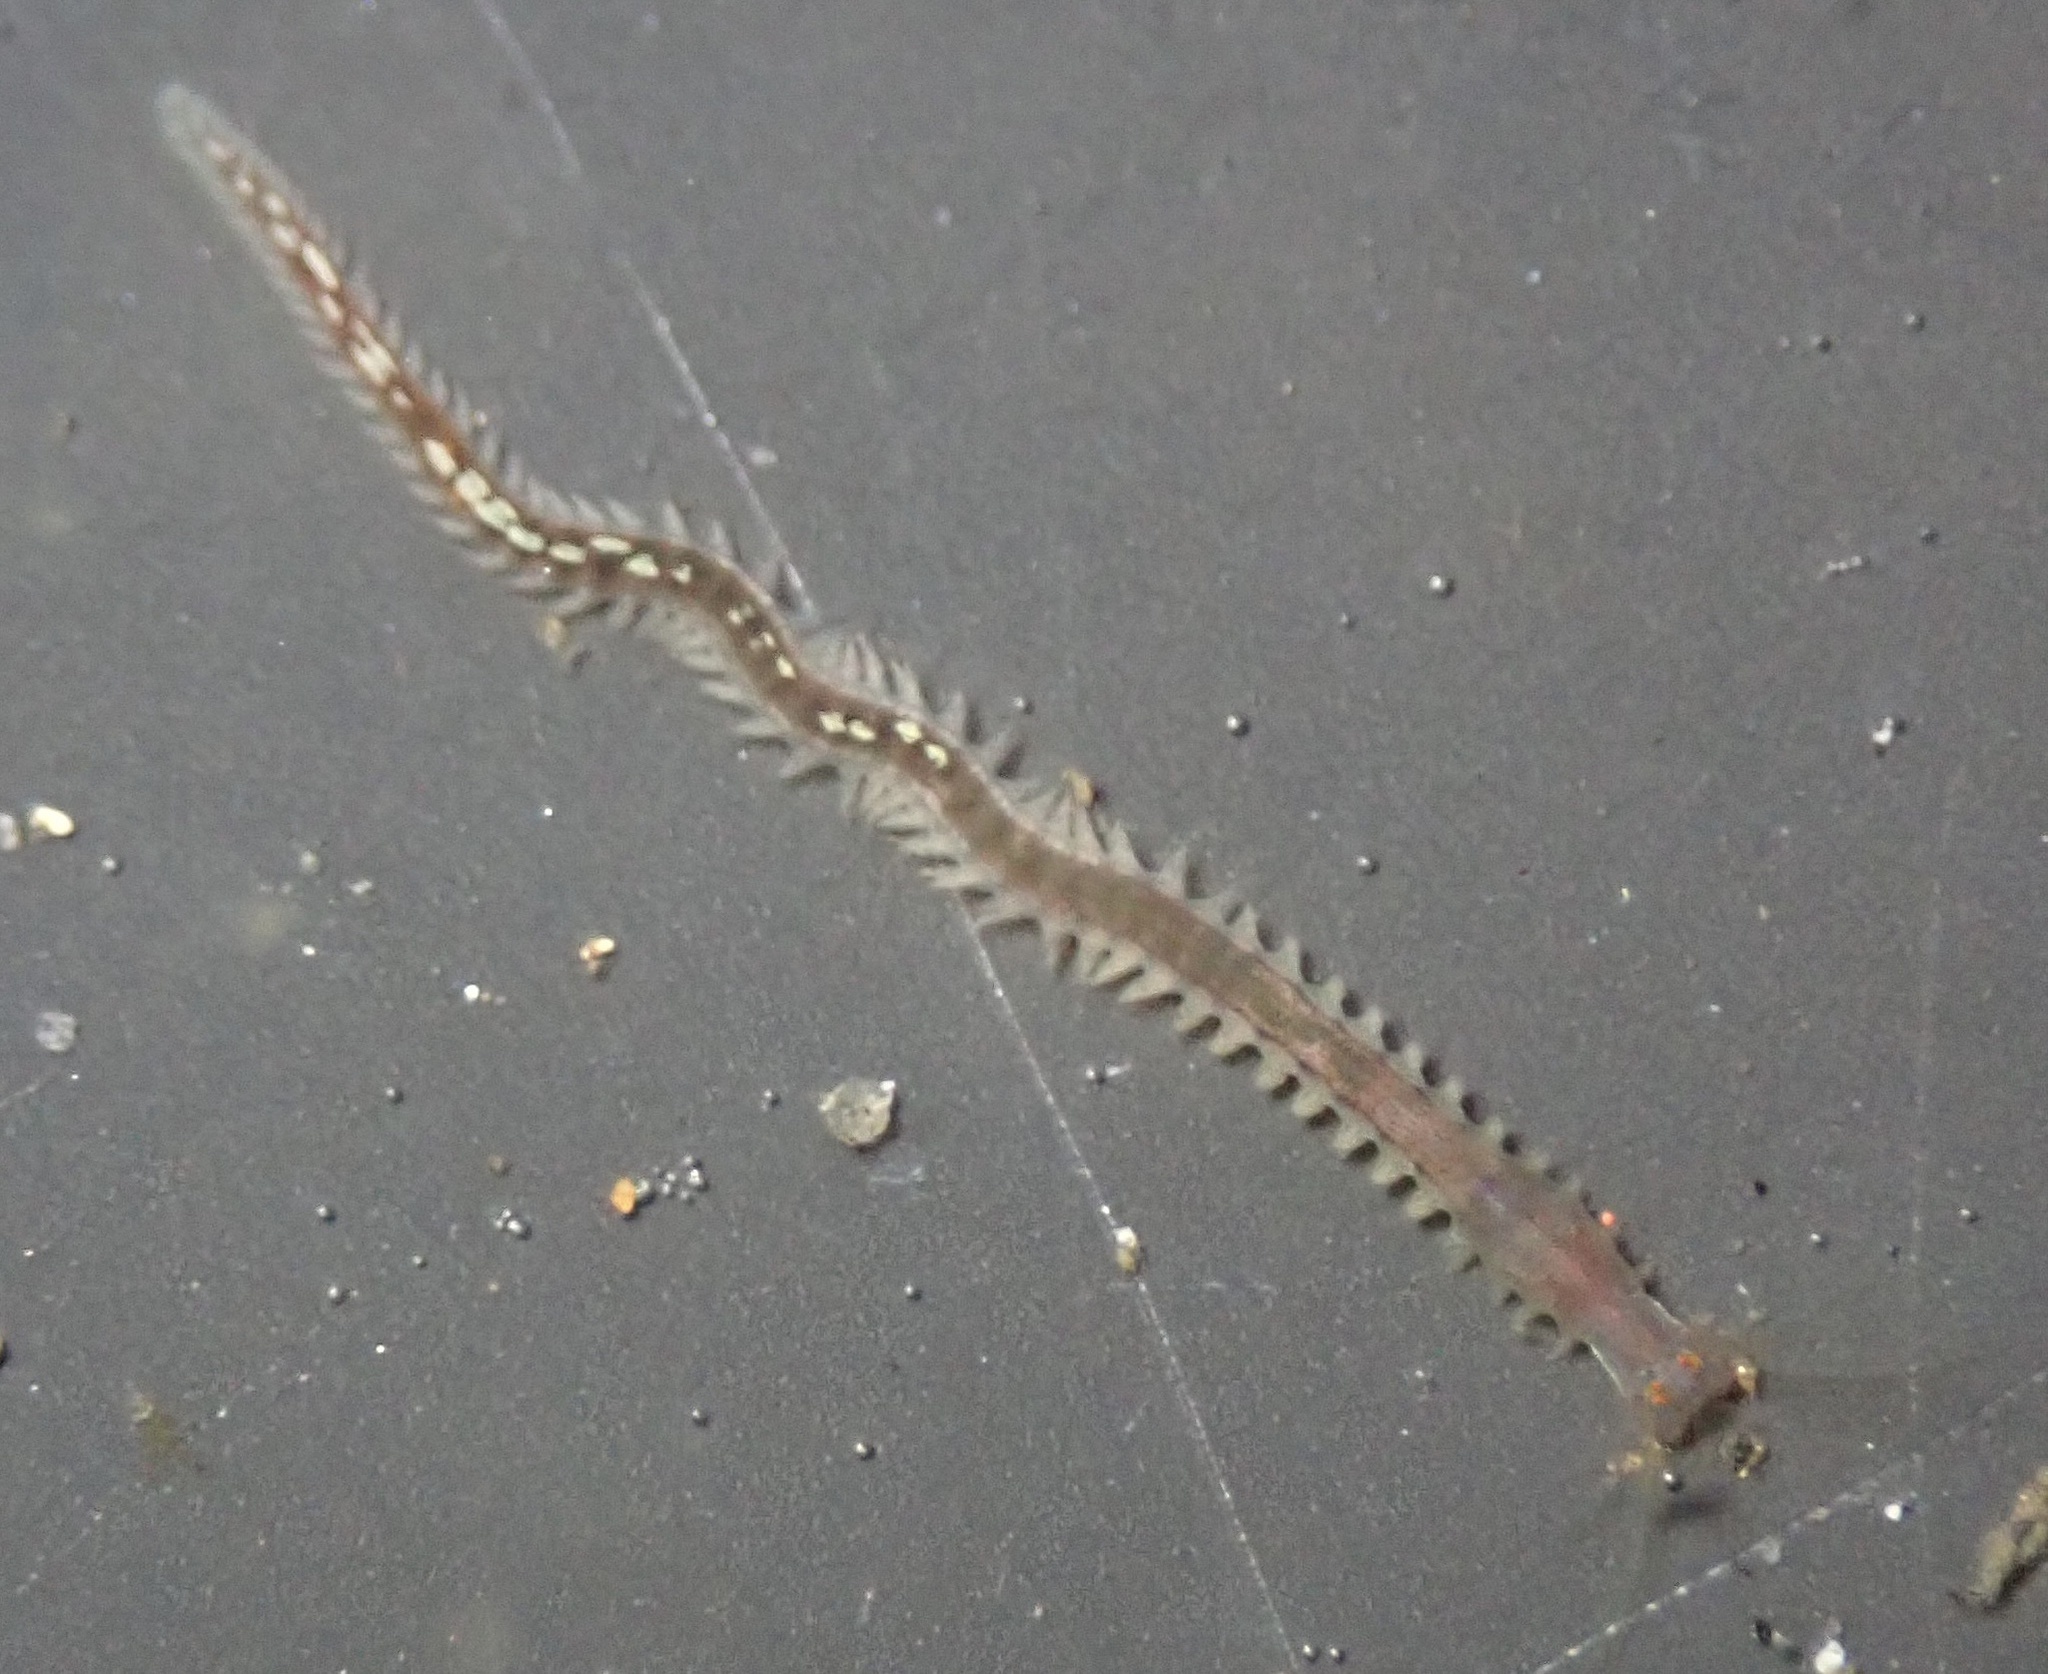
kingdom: Animalia
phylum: Annelida
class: Polychaeta
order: Phyllodocida
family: Nereididae
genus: Platynereis
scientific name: Platynereis bicanaliculata
